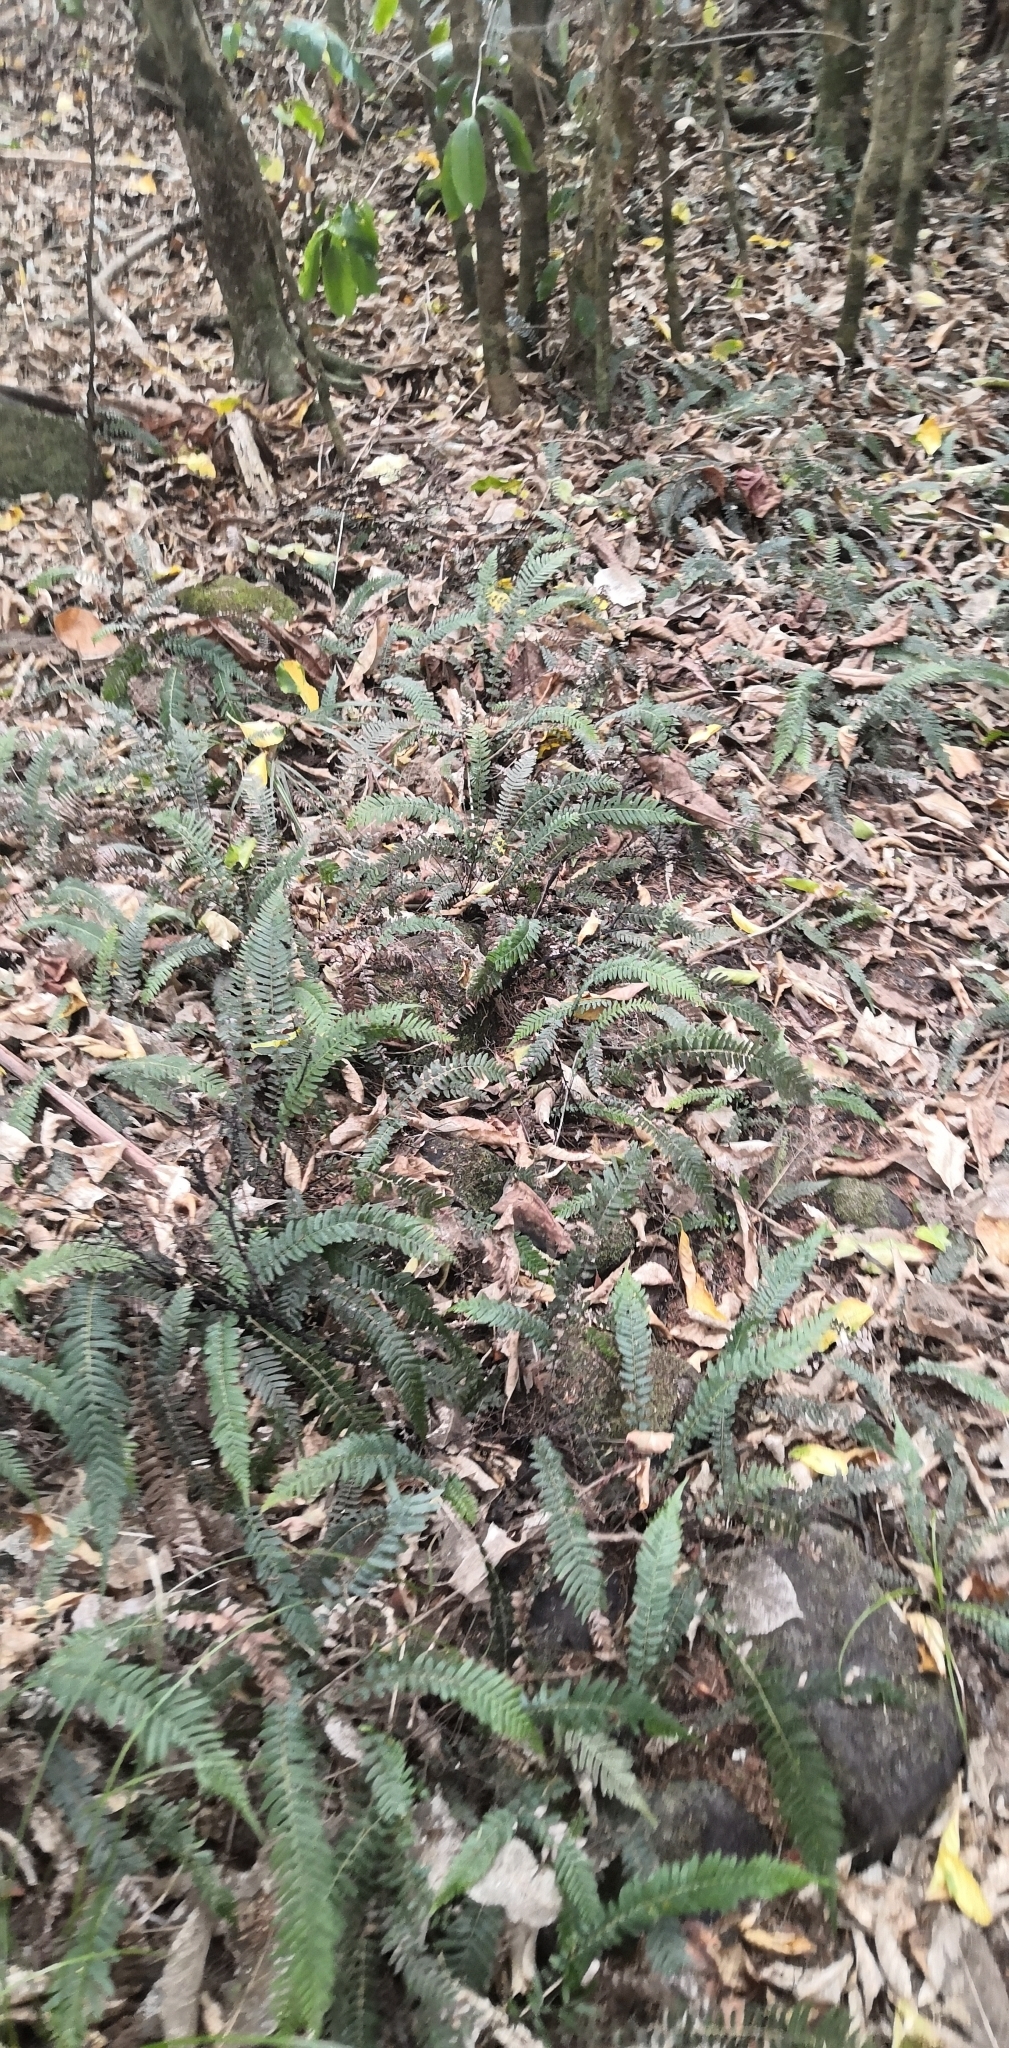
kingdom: Plantae
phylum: Tracheophyta
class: Polypodiopsida
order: Polypodiales
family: Blechnaceae
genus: Doodia
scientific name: Doodia australis
